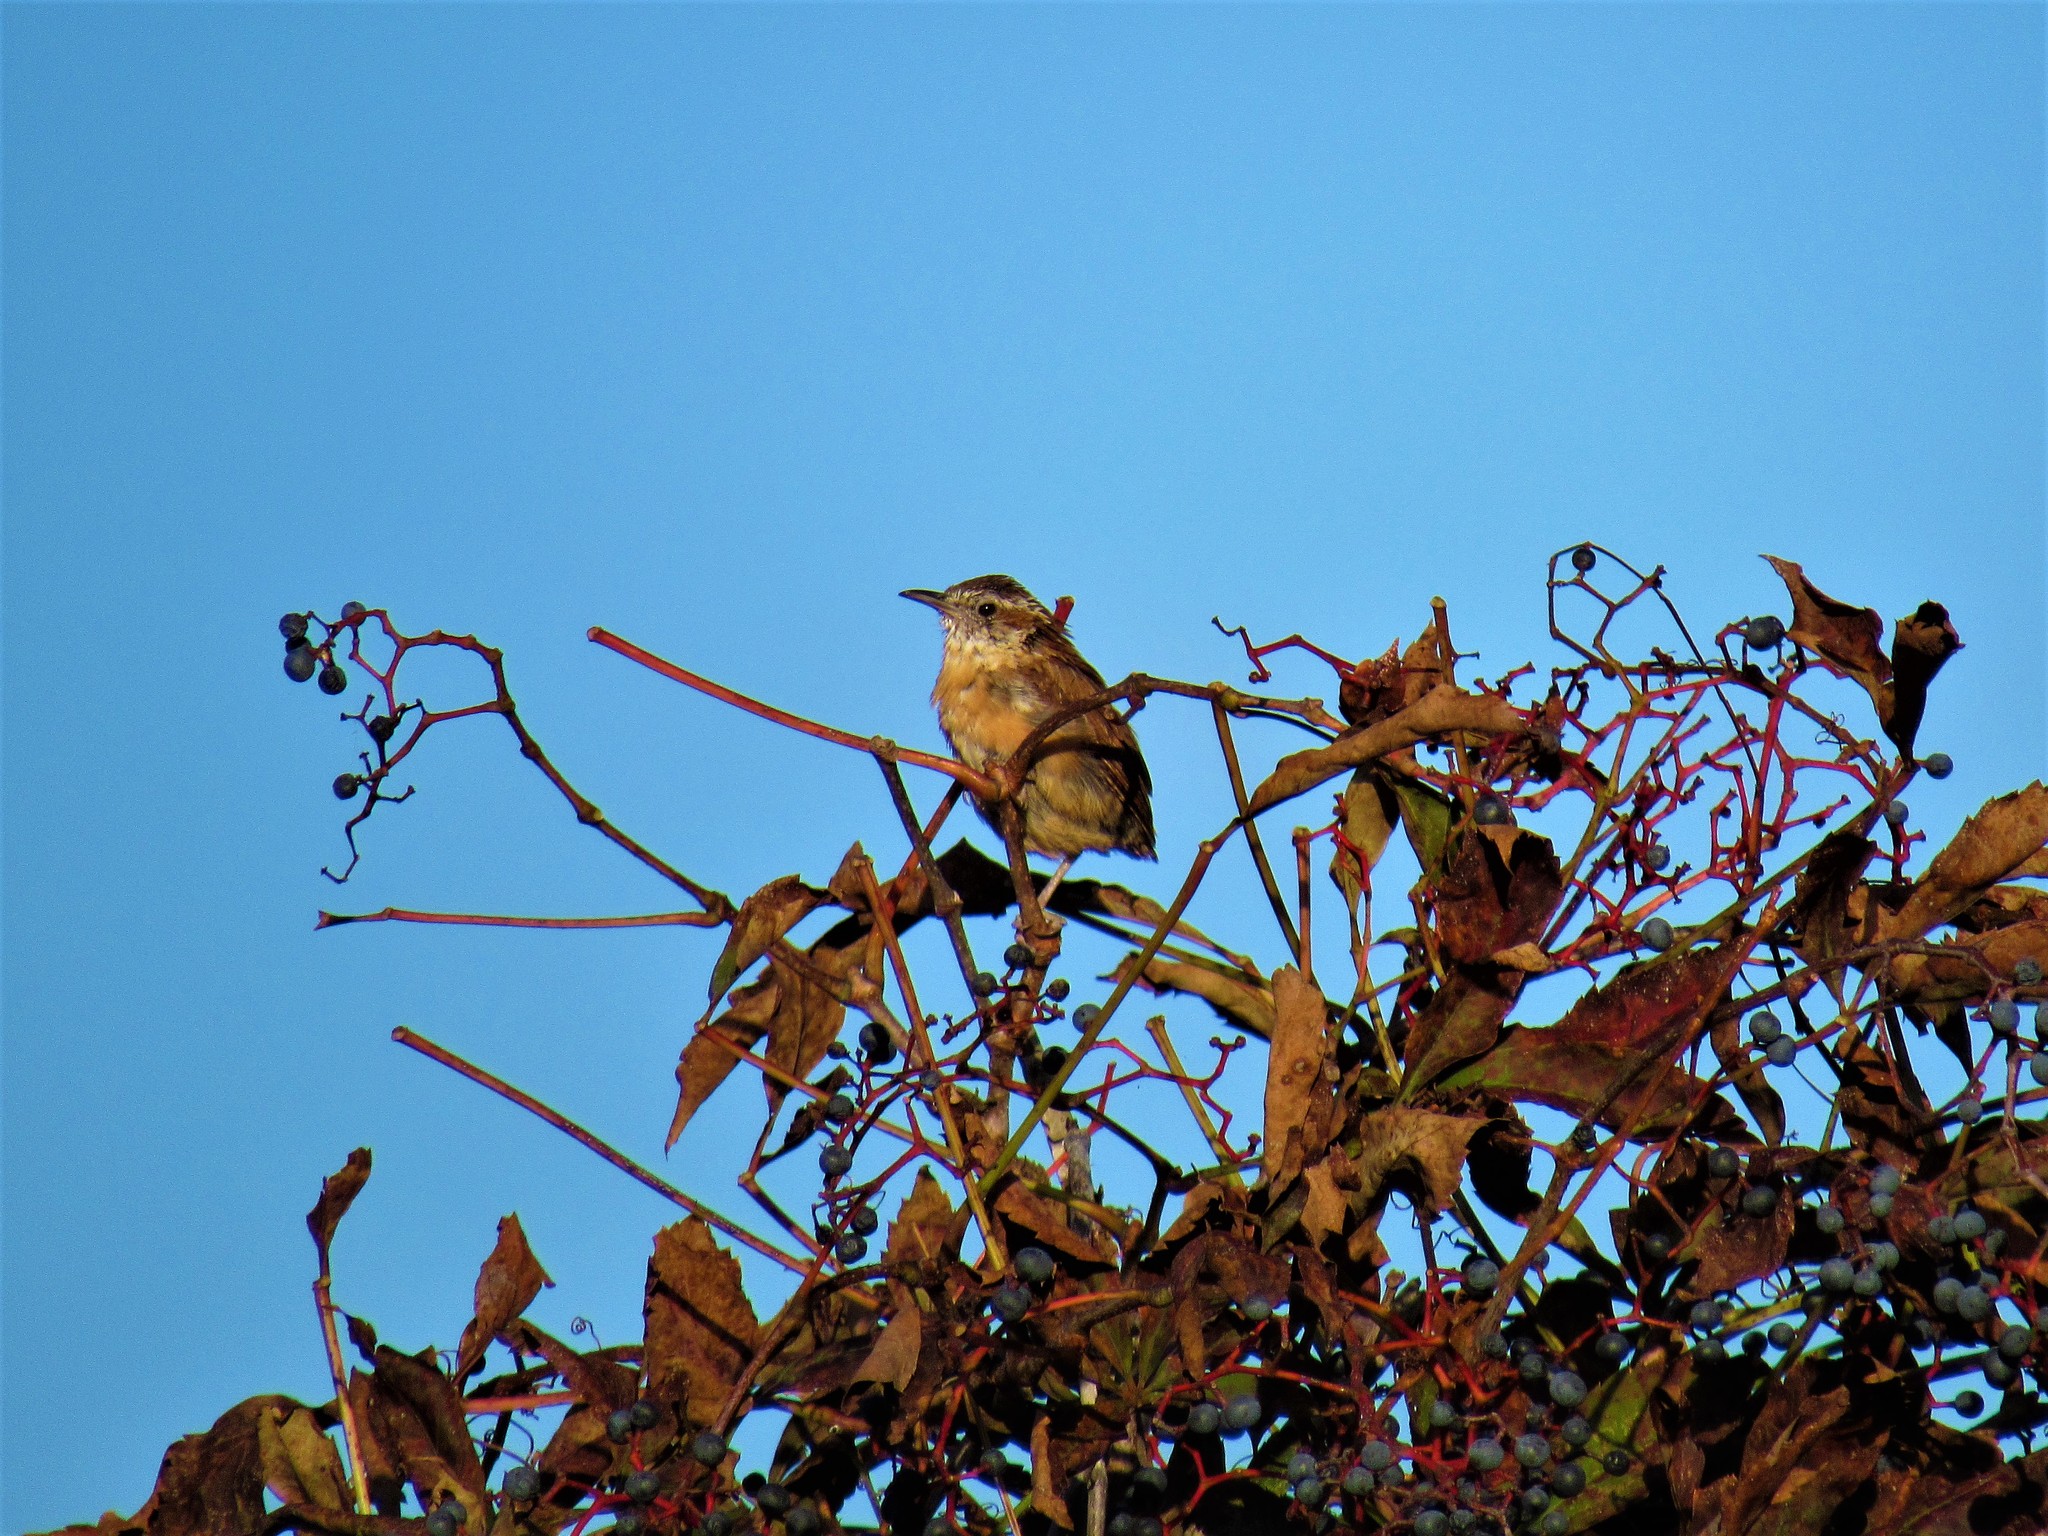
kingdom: Animalia
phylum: Chordata
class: Aves
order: Passeriformes
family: Troglodytidae
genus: Thryothorus
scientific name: Thryothorus ludovicianus
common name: Carolina wren
